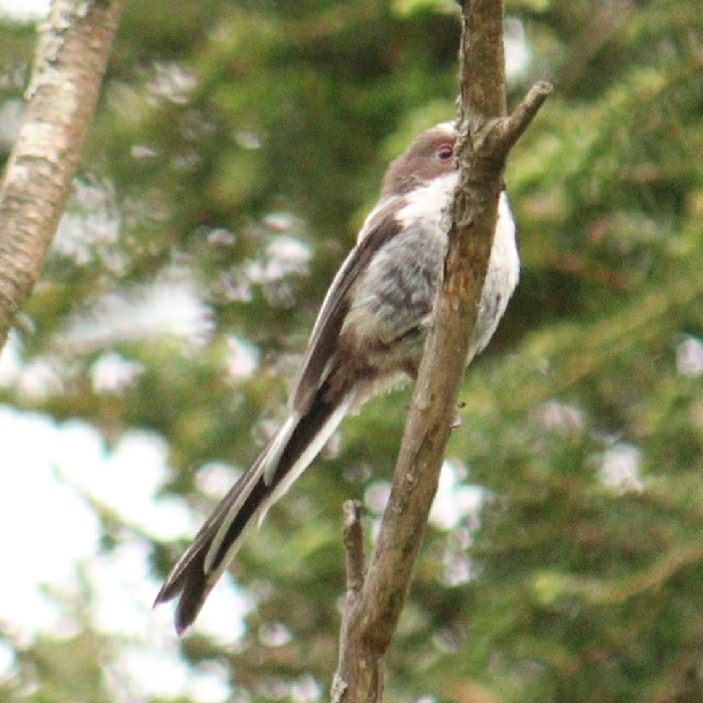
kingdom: Animalia
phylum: Chordata
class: Aves
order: Passeriformes
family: Aegithalidae
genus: Aegithalos
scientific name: Aegithalos caudatus
